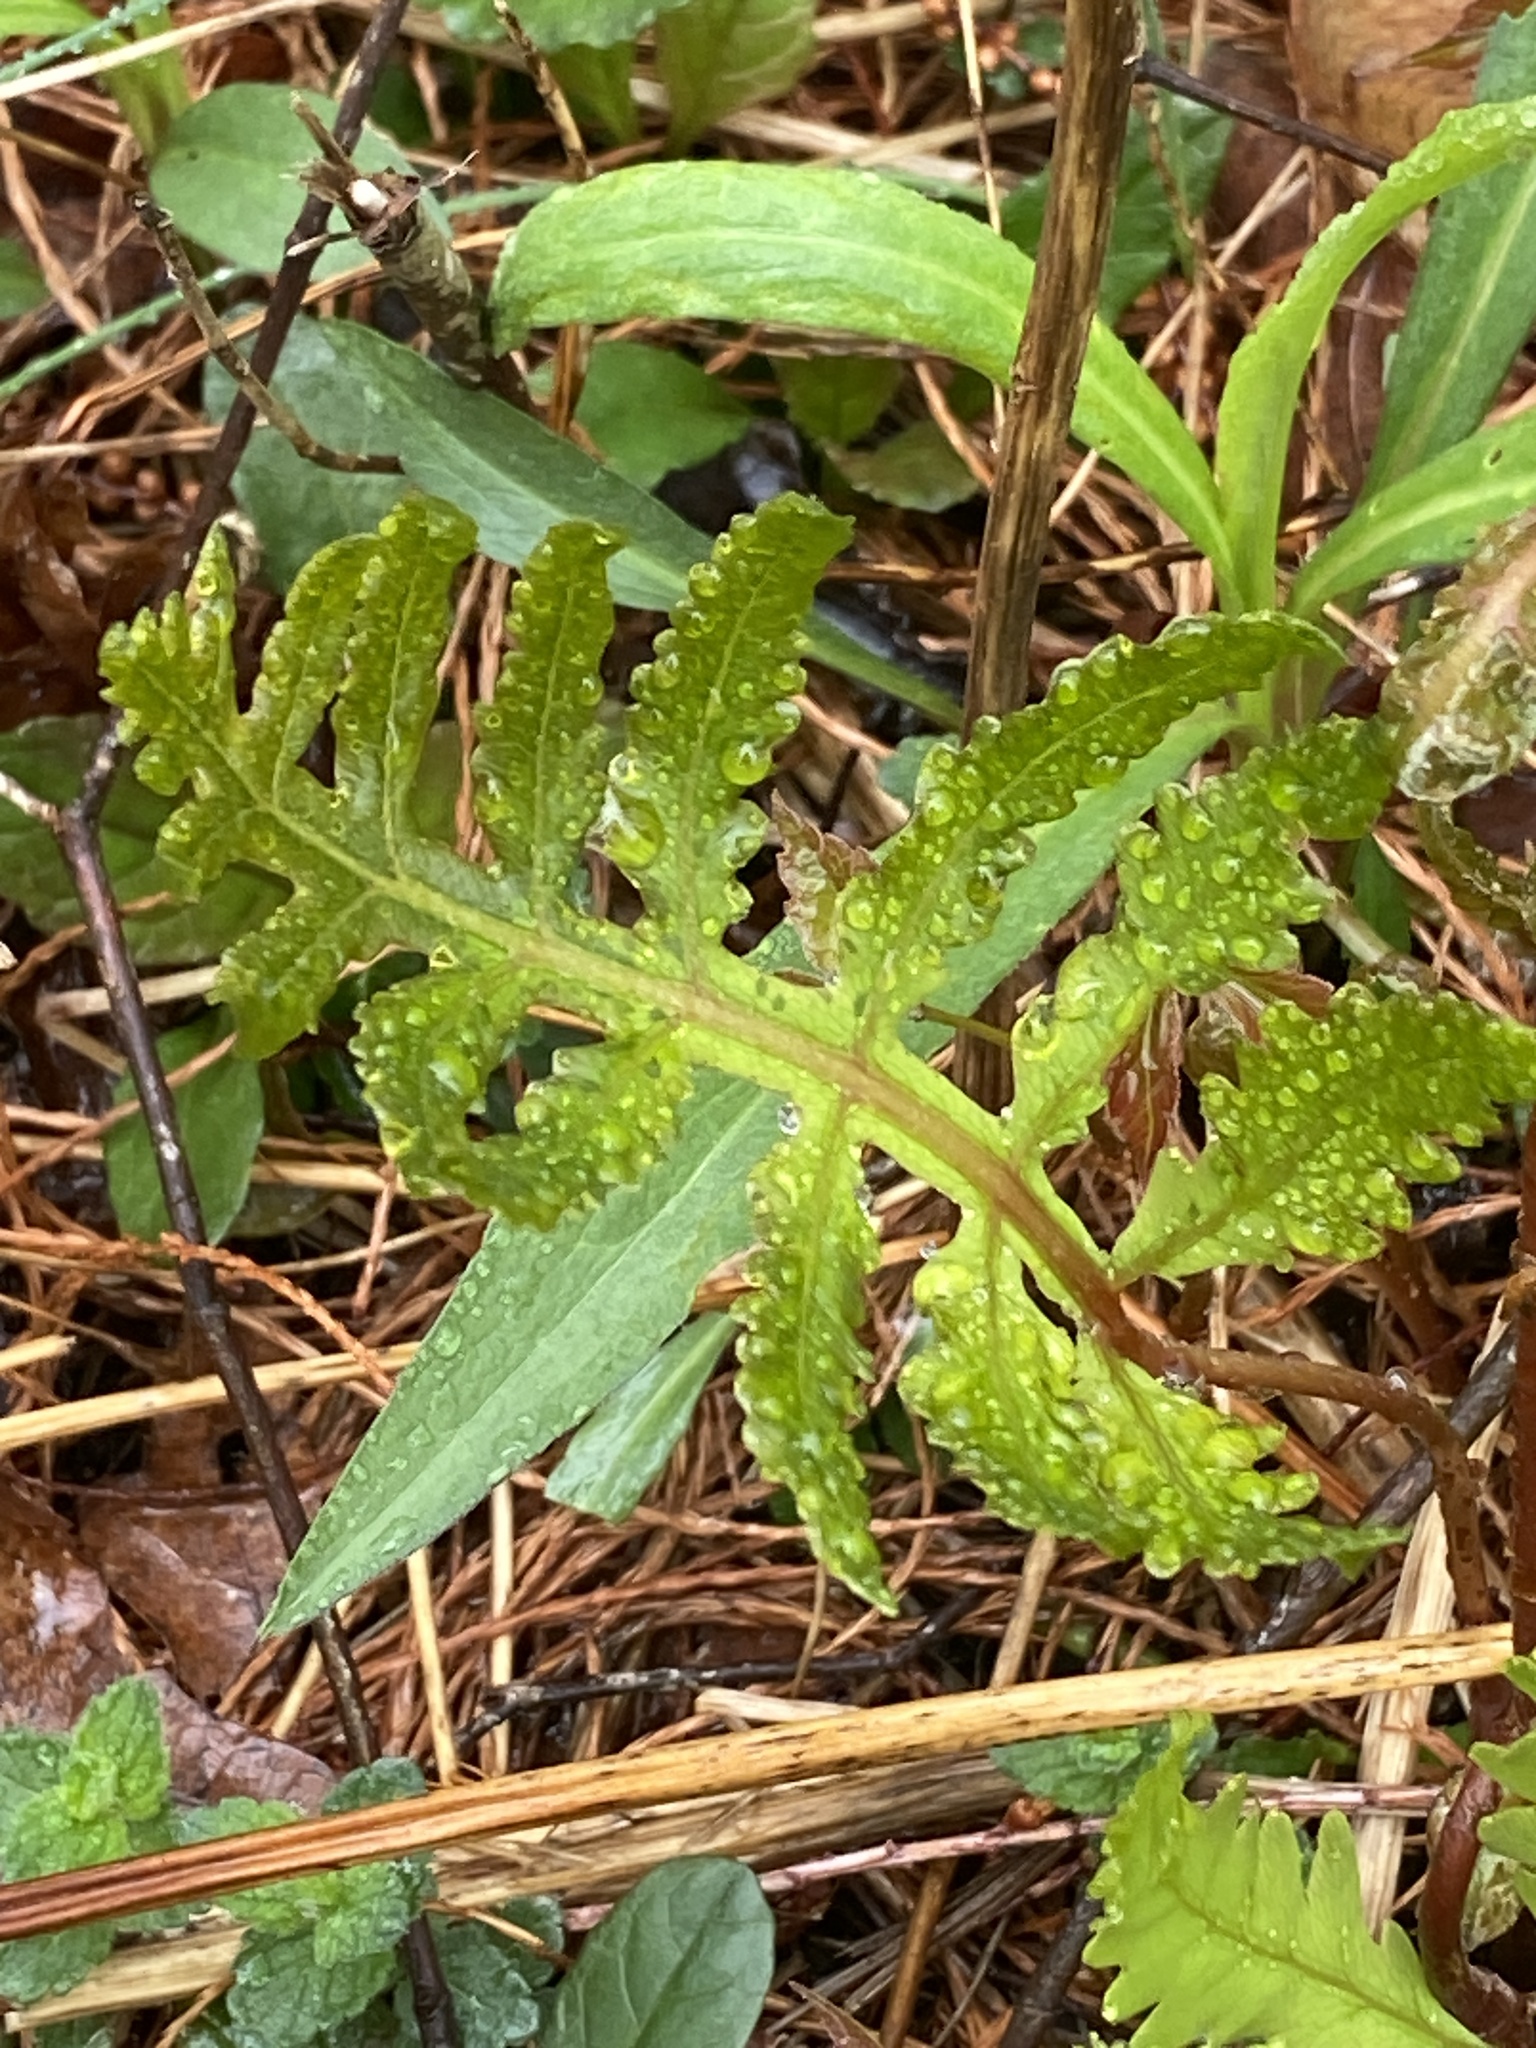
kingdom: Plantae
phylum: Tracheophyta
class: Polypodiopsida
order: Polypodiales
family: Onocleaceae
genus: Onoclea
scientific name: Onoclea sensibilis
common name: Sensitive fern
